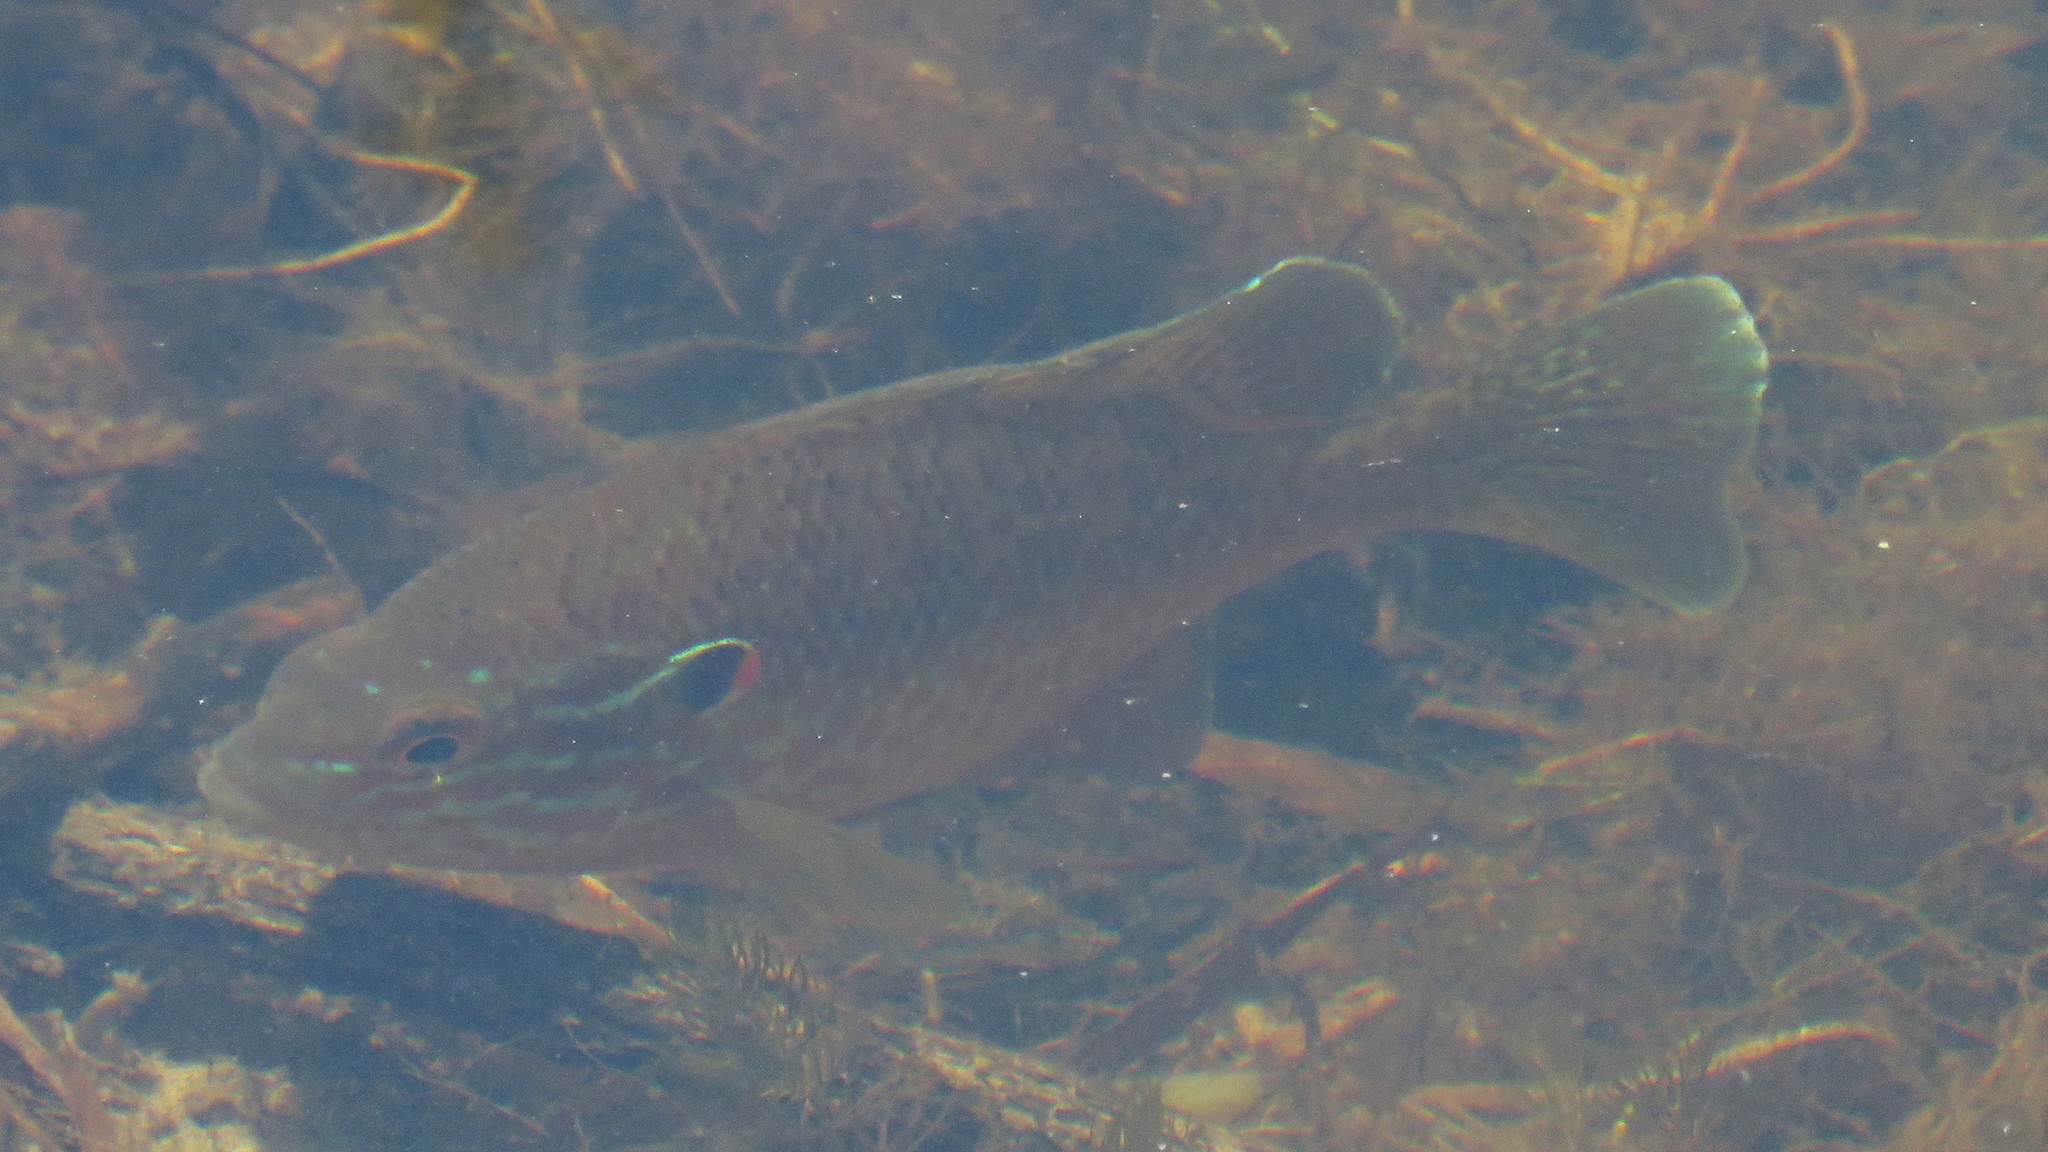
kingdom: Animalia
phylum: Chordata
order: Perciformes
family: Centrarchidae
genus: Lepomis
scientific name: Lepomis gibbosus
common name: Pumpkinseed
